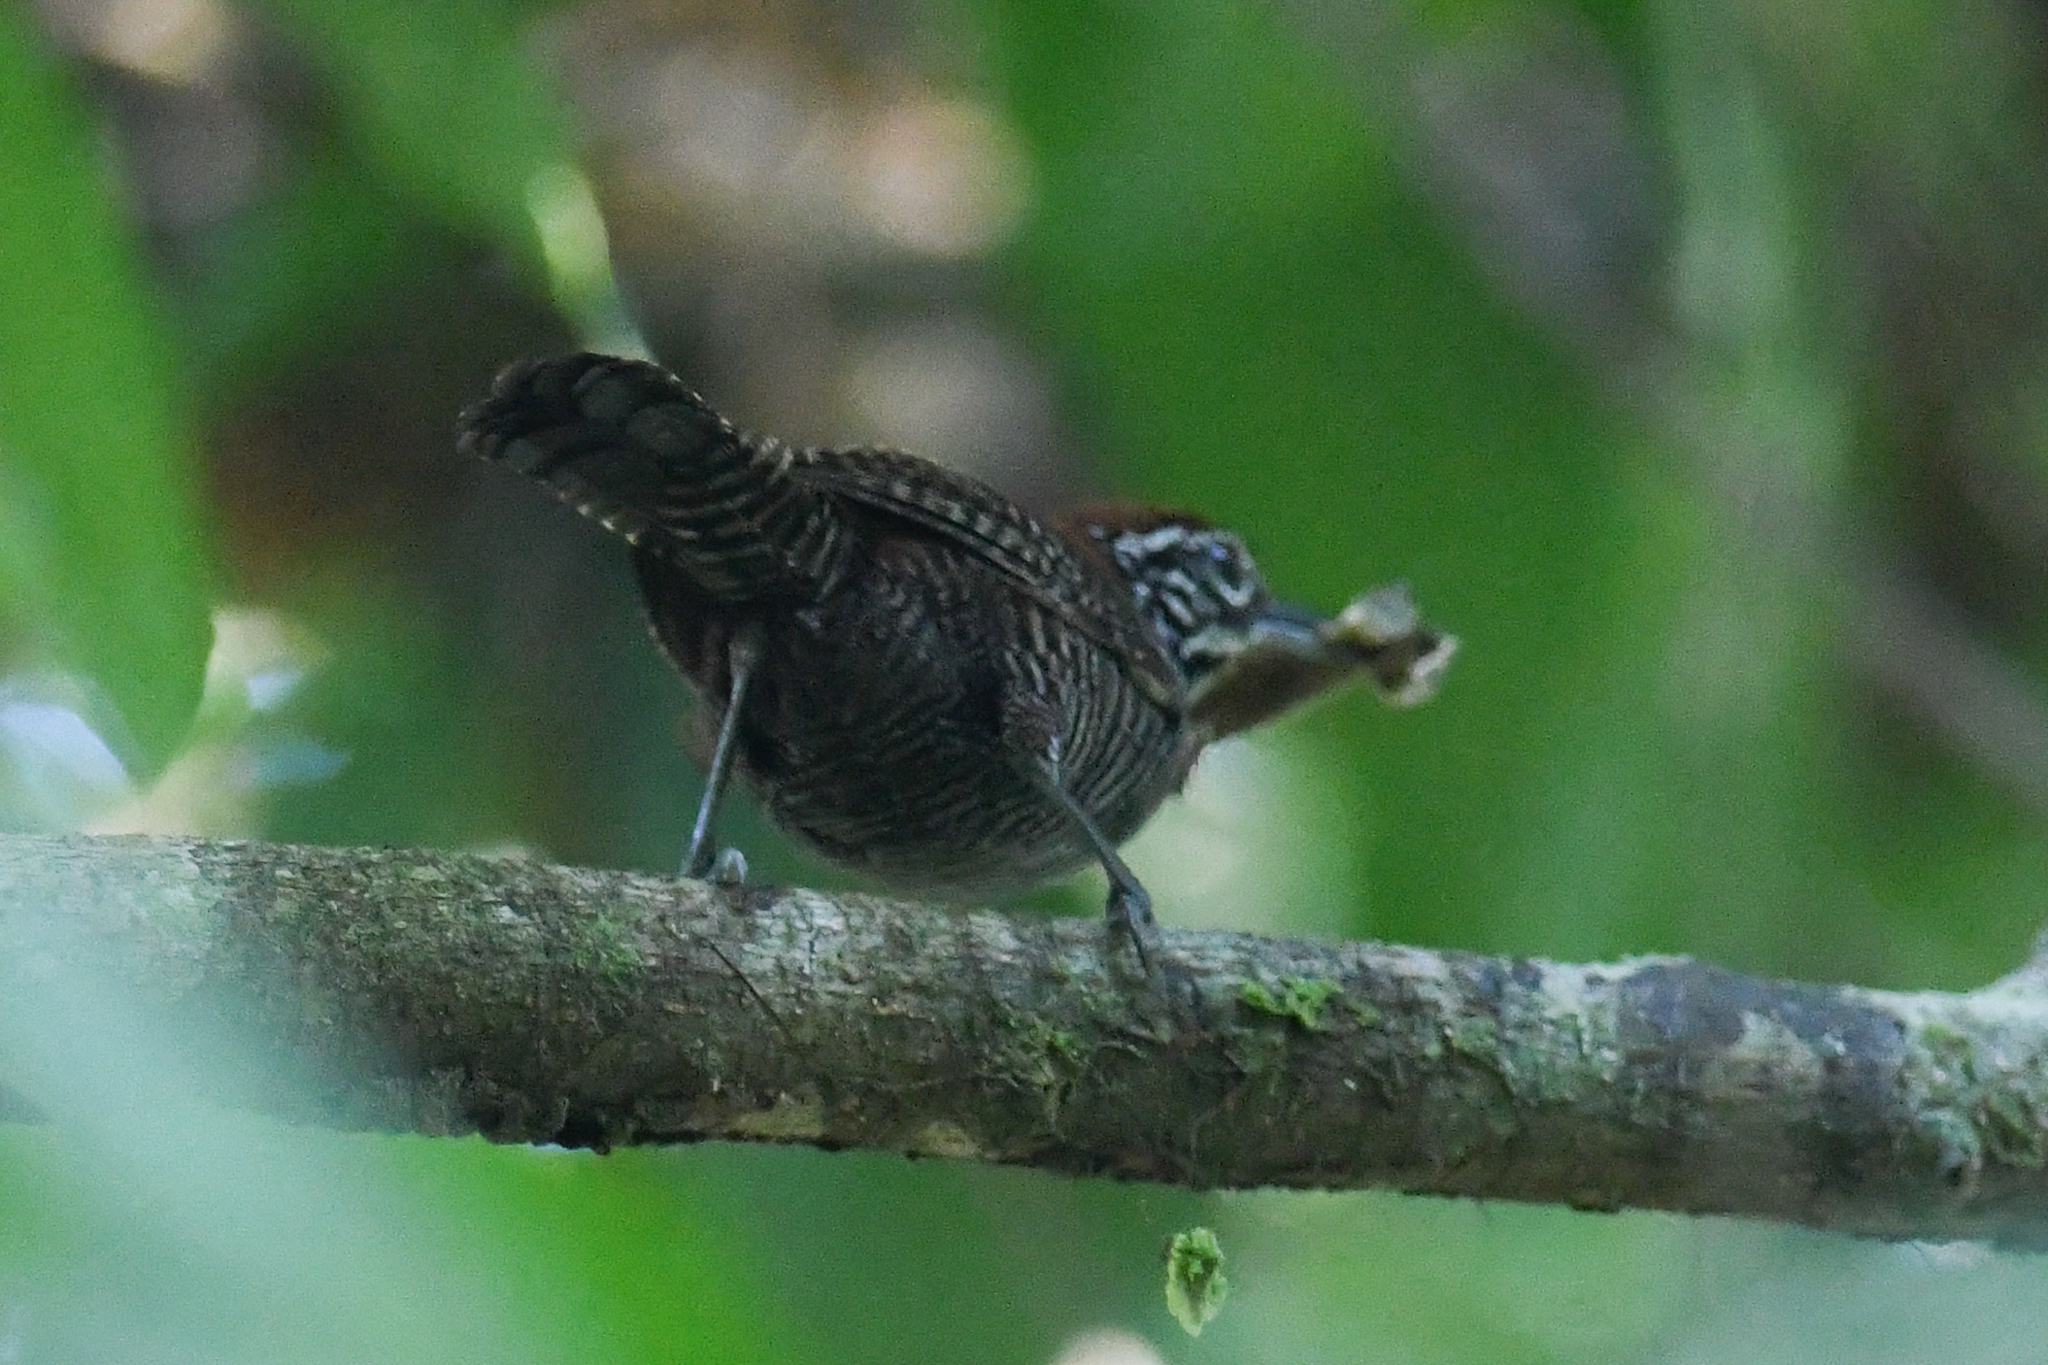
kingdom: Animalia
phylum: Chordata
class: Aves
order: Passeriformes
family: Troglodytidae
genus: Cantorchilus
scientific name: Cantorchilus semibadius
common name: Riverside wren
